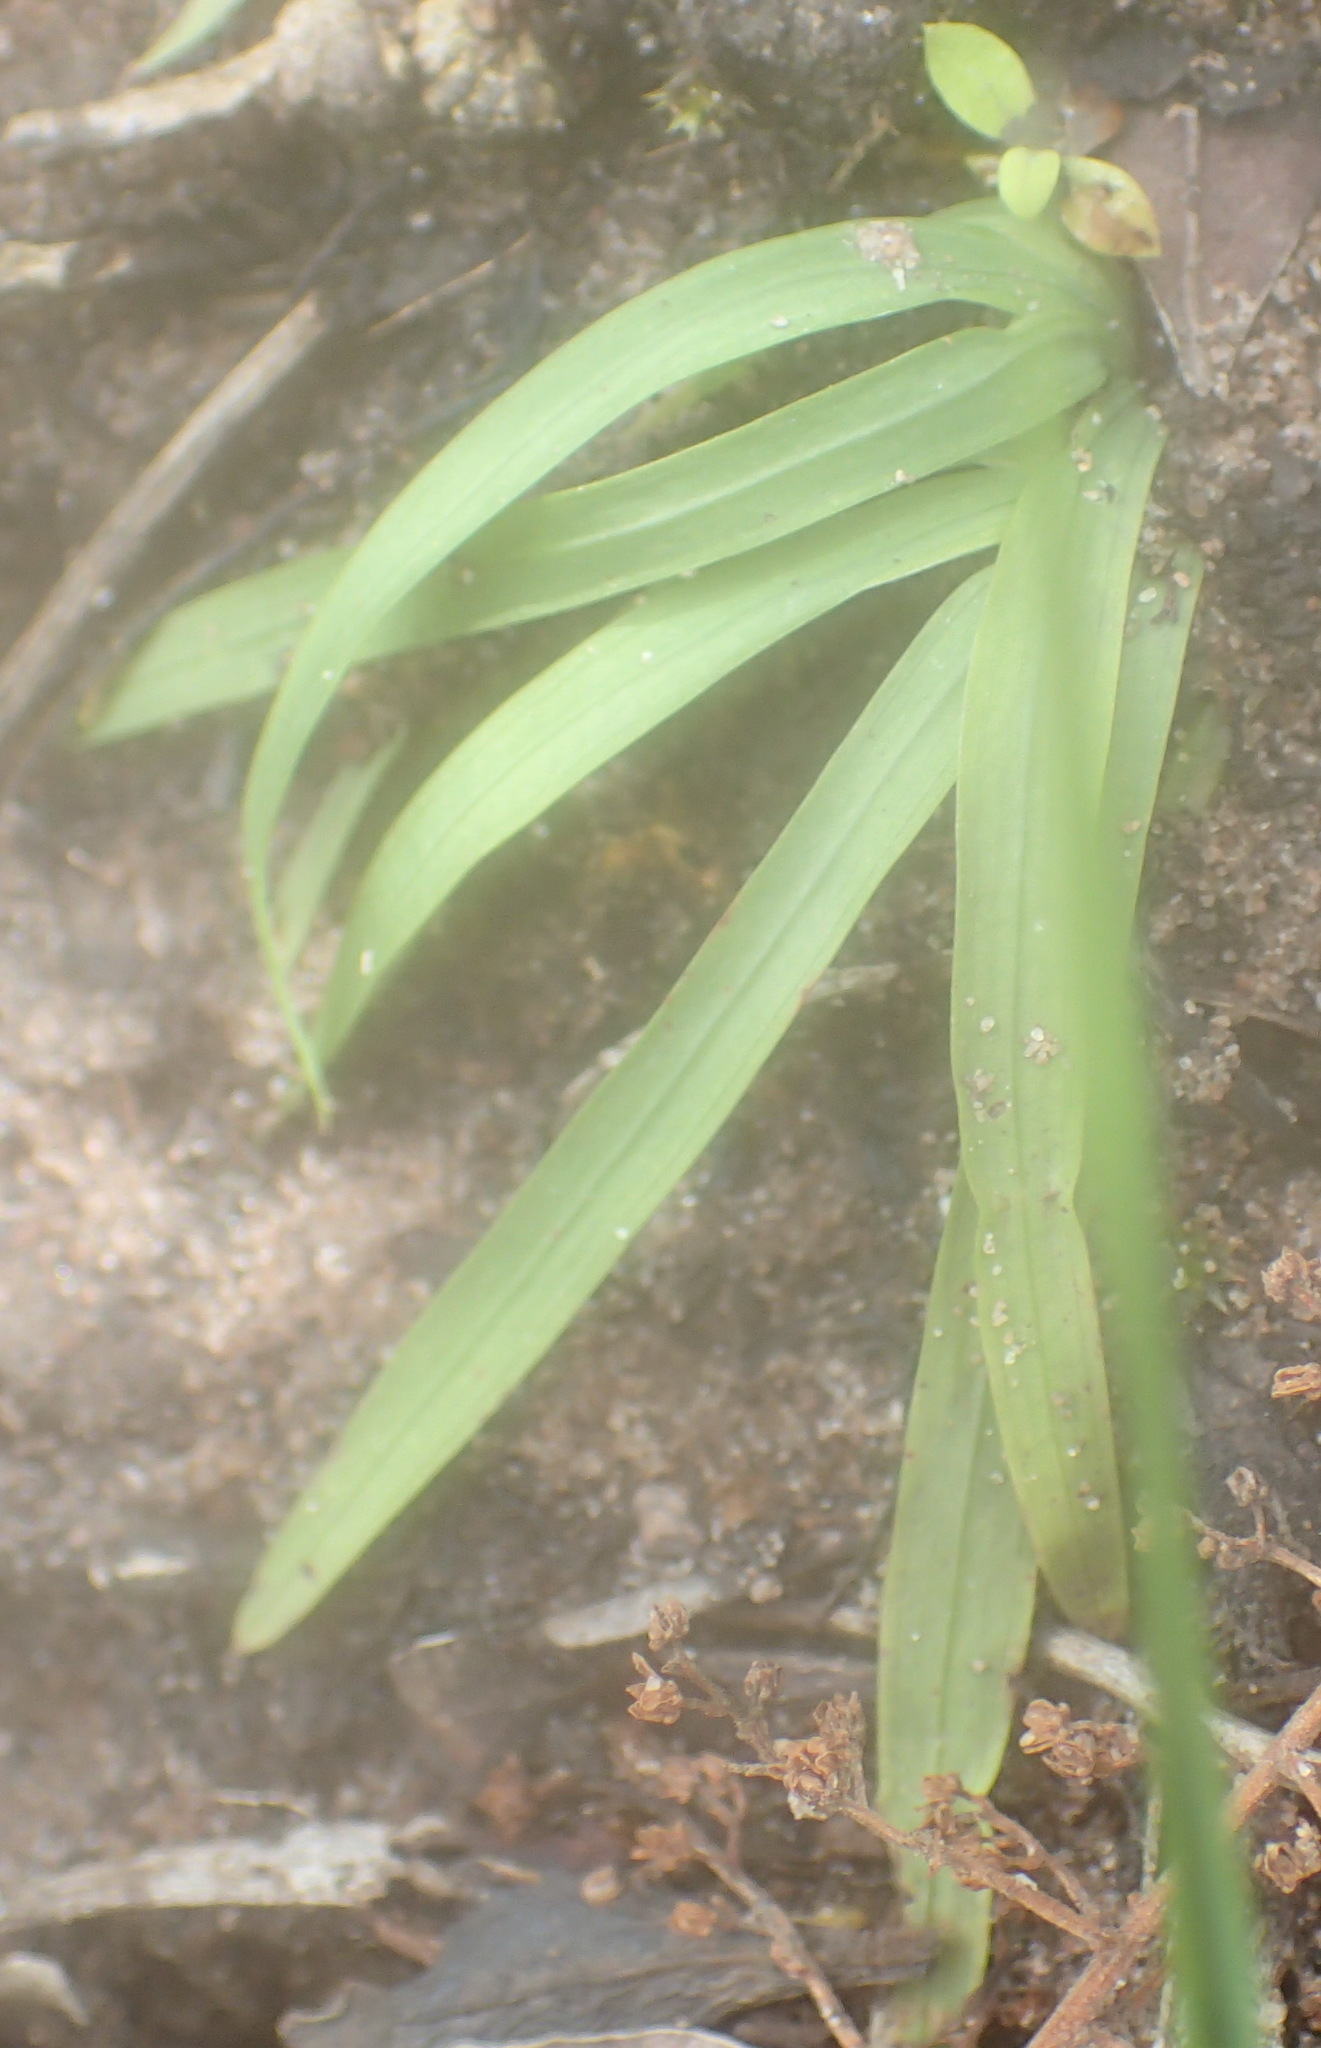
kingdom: Plantae
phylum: Tracheophyta
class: Liliopsida
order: Asparagales
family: Iridaceae
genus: Freesia
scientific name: Freesia leichtlinii
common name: Freesia
